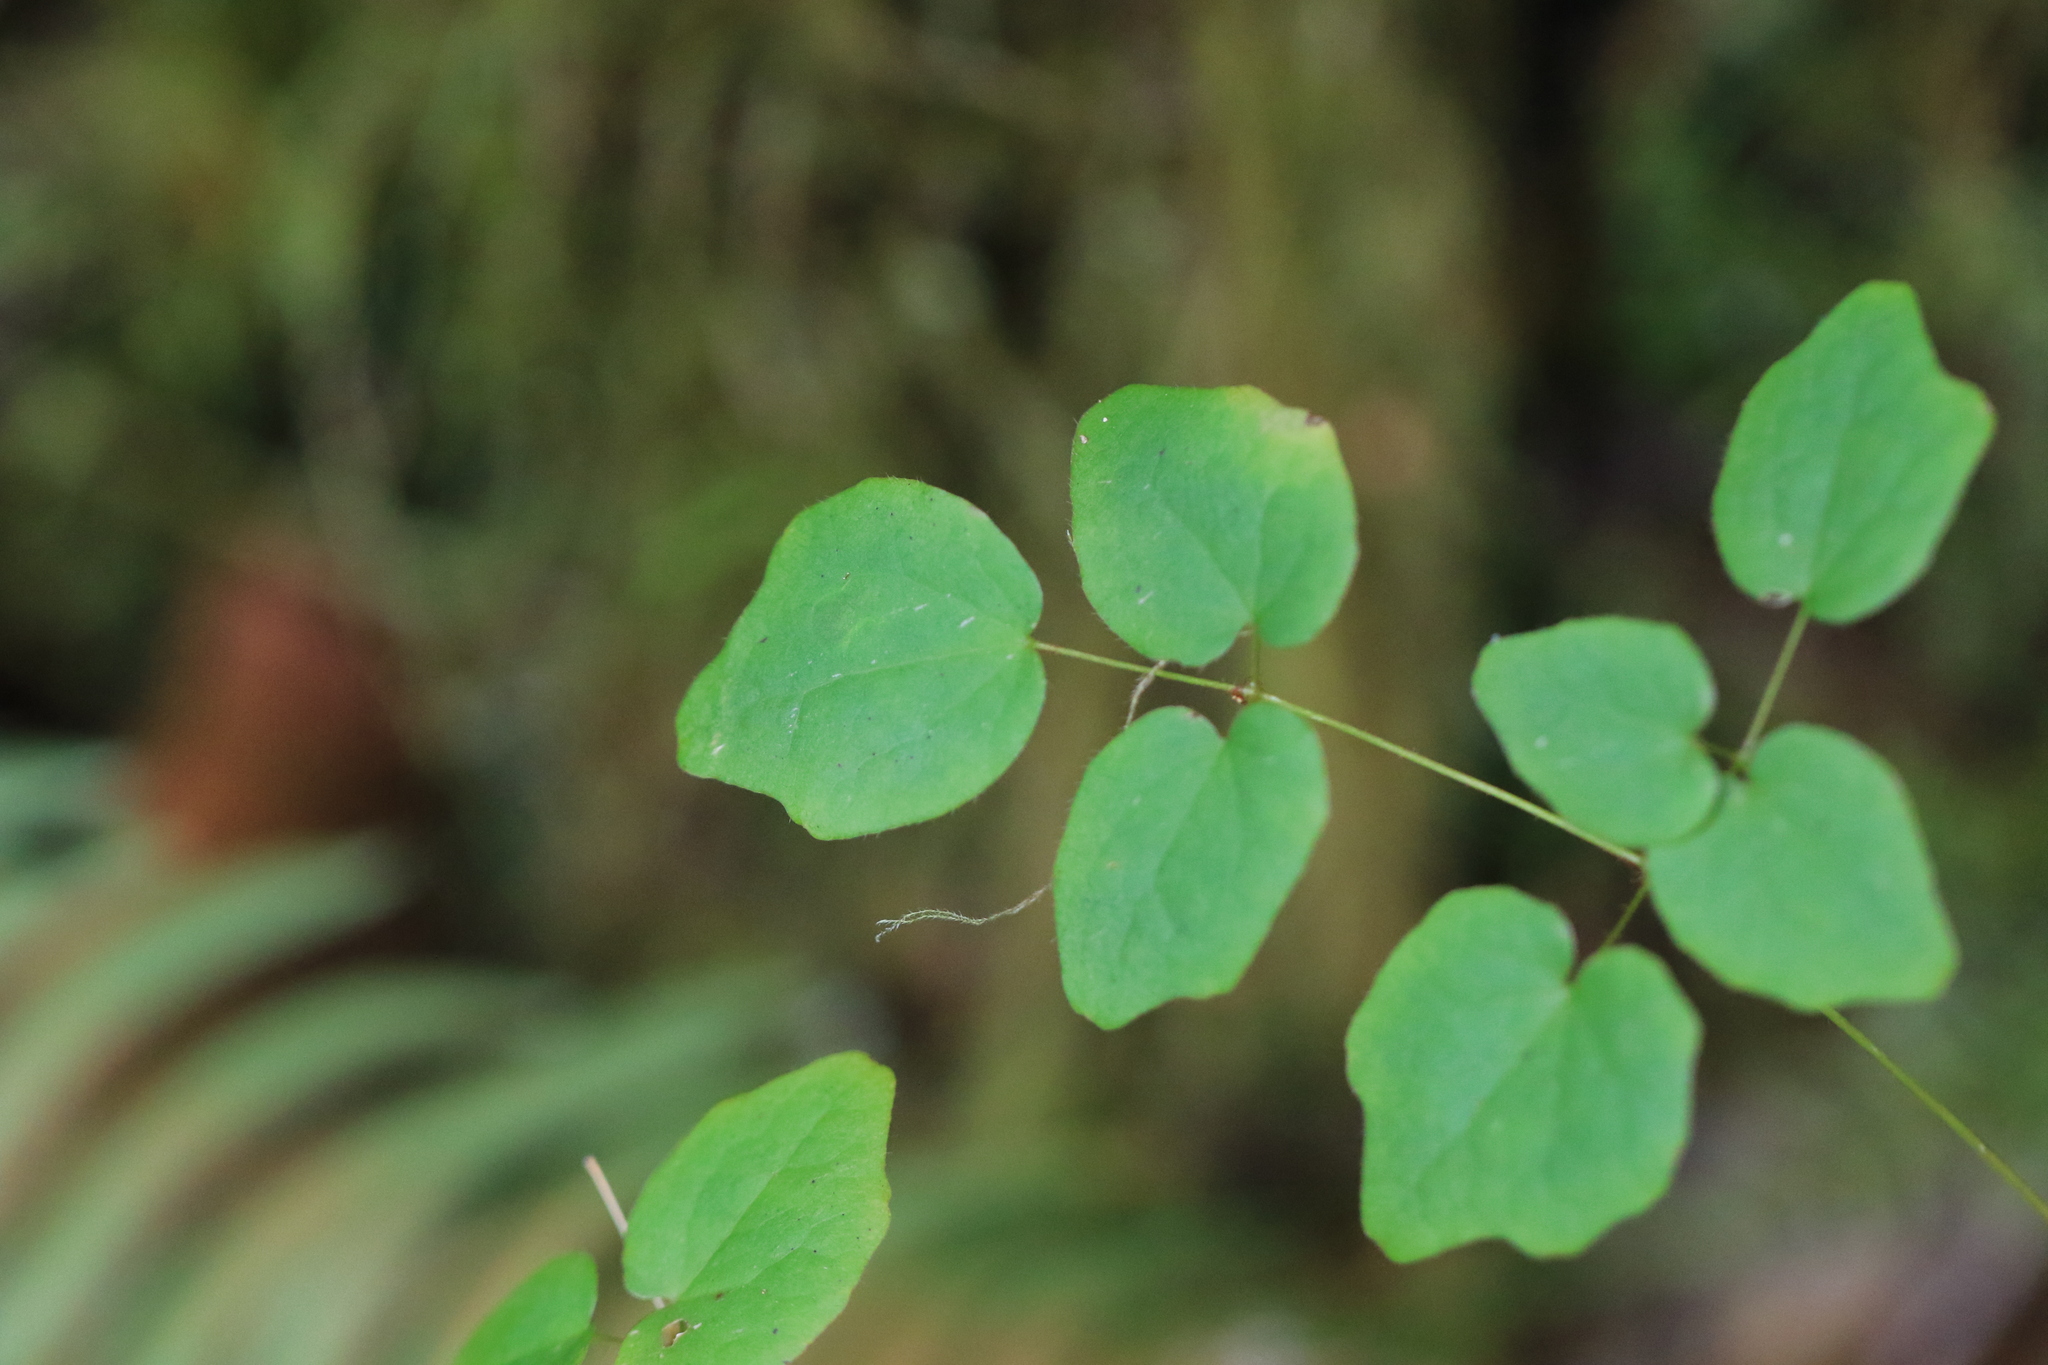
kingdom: Plantae
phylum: Tracheophyta
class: Magnoliopsida
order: Ranunculales
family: Berberidaceae
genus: Vancouveria
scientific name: Vancouveria hexandra
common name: Northern inside-out-flower
